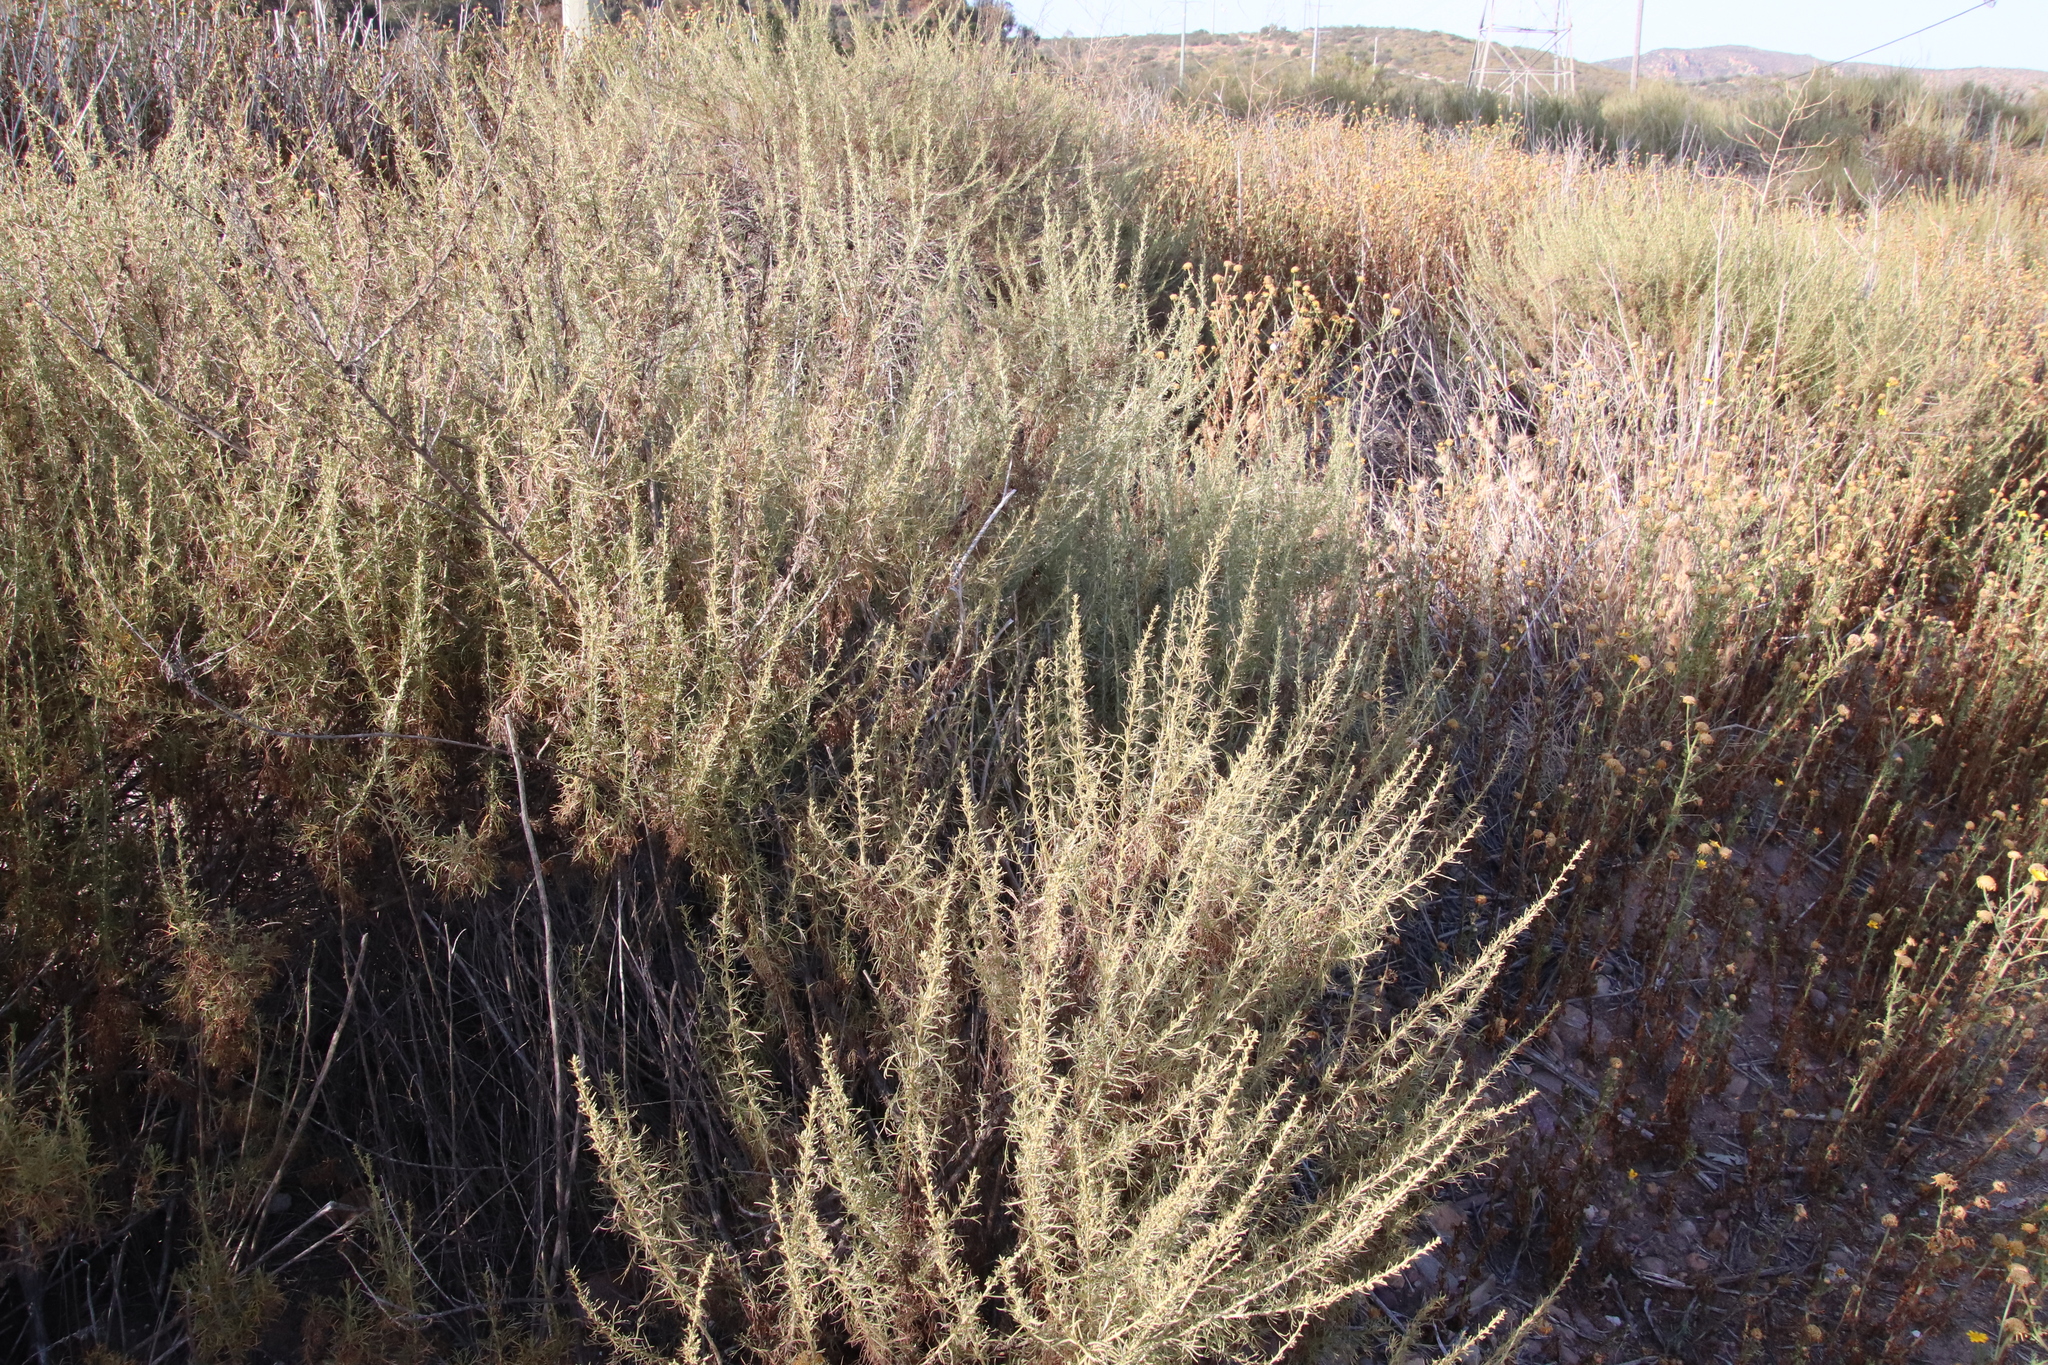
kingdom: Plantae
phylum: Tracheophyta
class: Magnoliopsida
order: Asterales
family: Asteraceae
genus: Artemisia
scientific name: Artemisia californica
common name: California sagebrush
